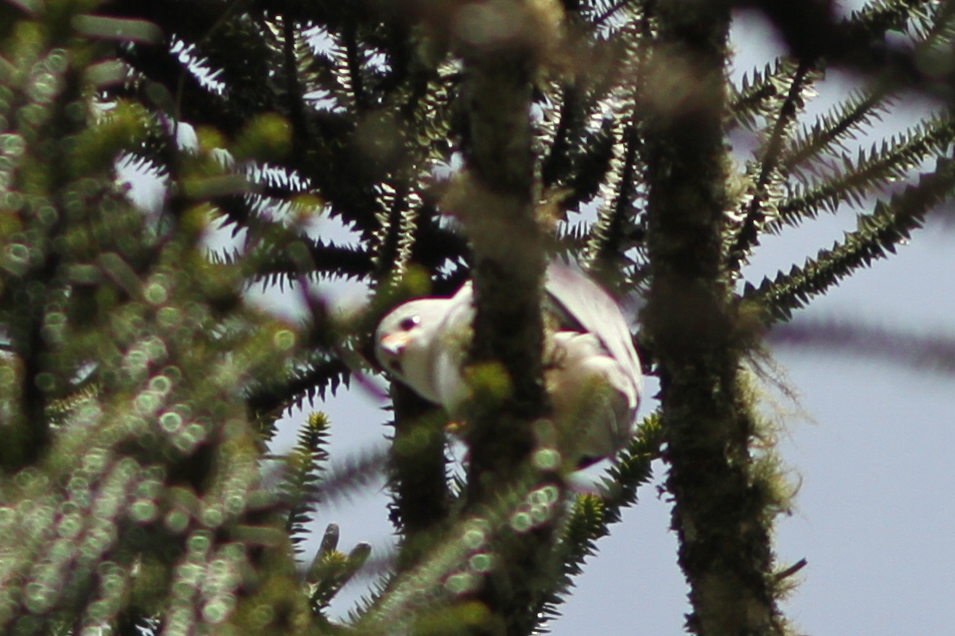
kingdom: Animalia
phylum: Chordata
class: Aves
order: Accipitriformes
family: Accipitridae
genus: Accipiter
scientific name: Accipiter novaehollandiae
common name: Grey goshawk
